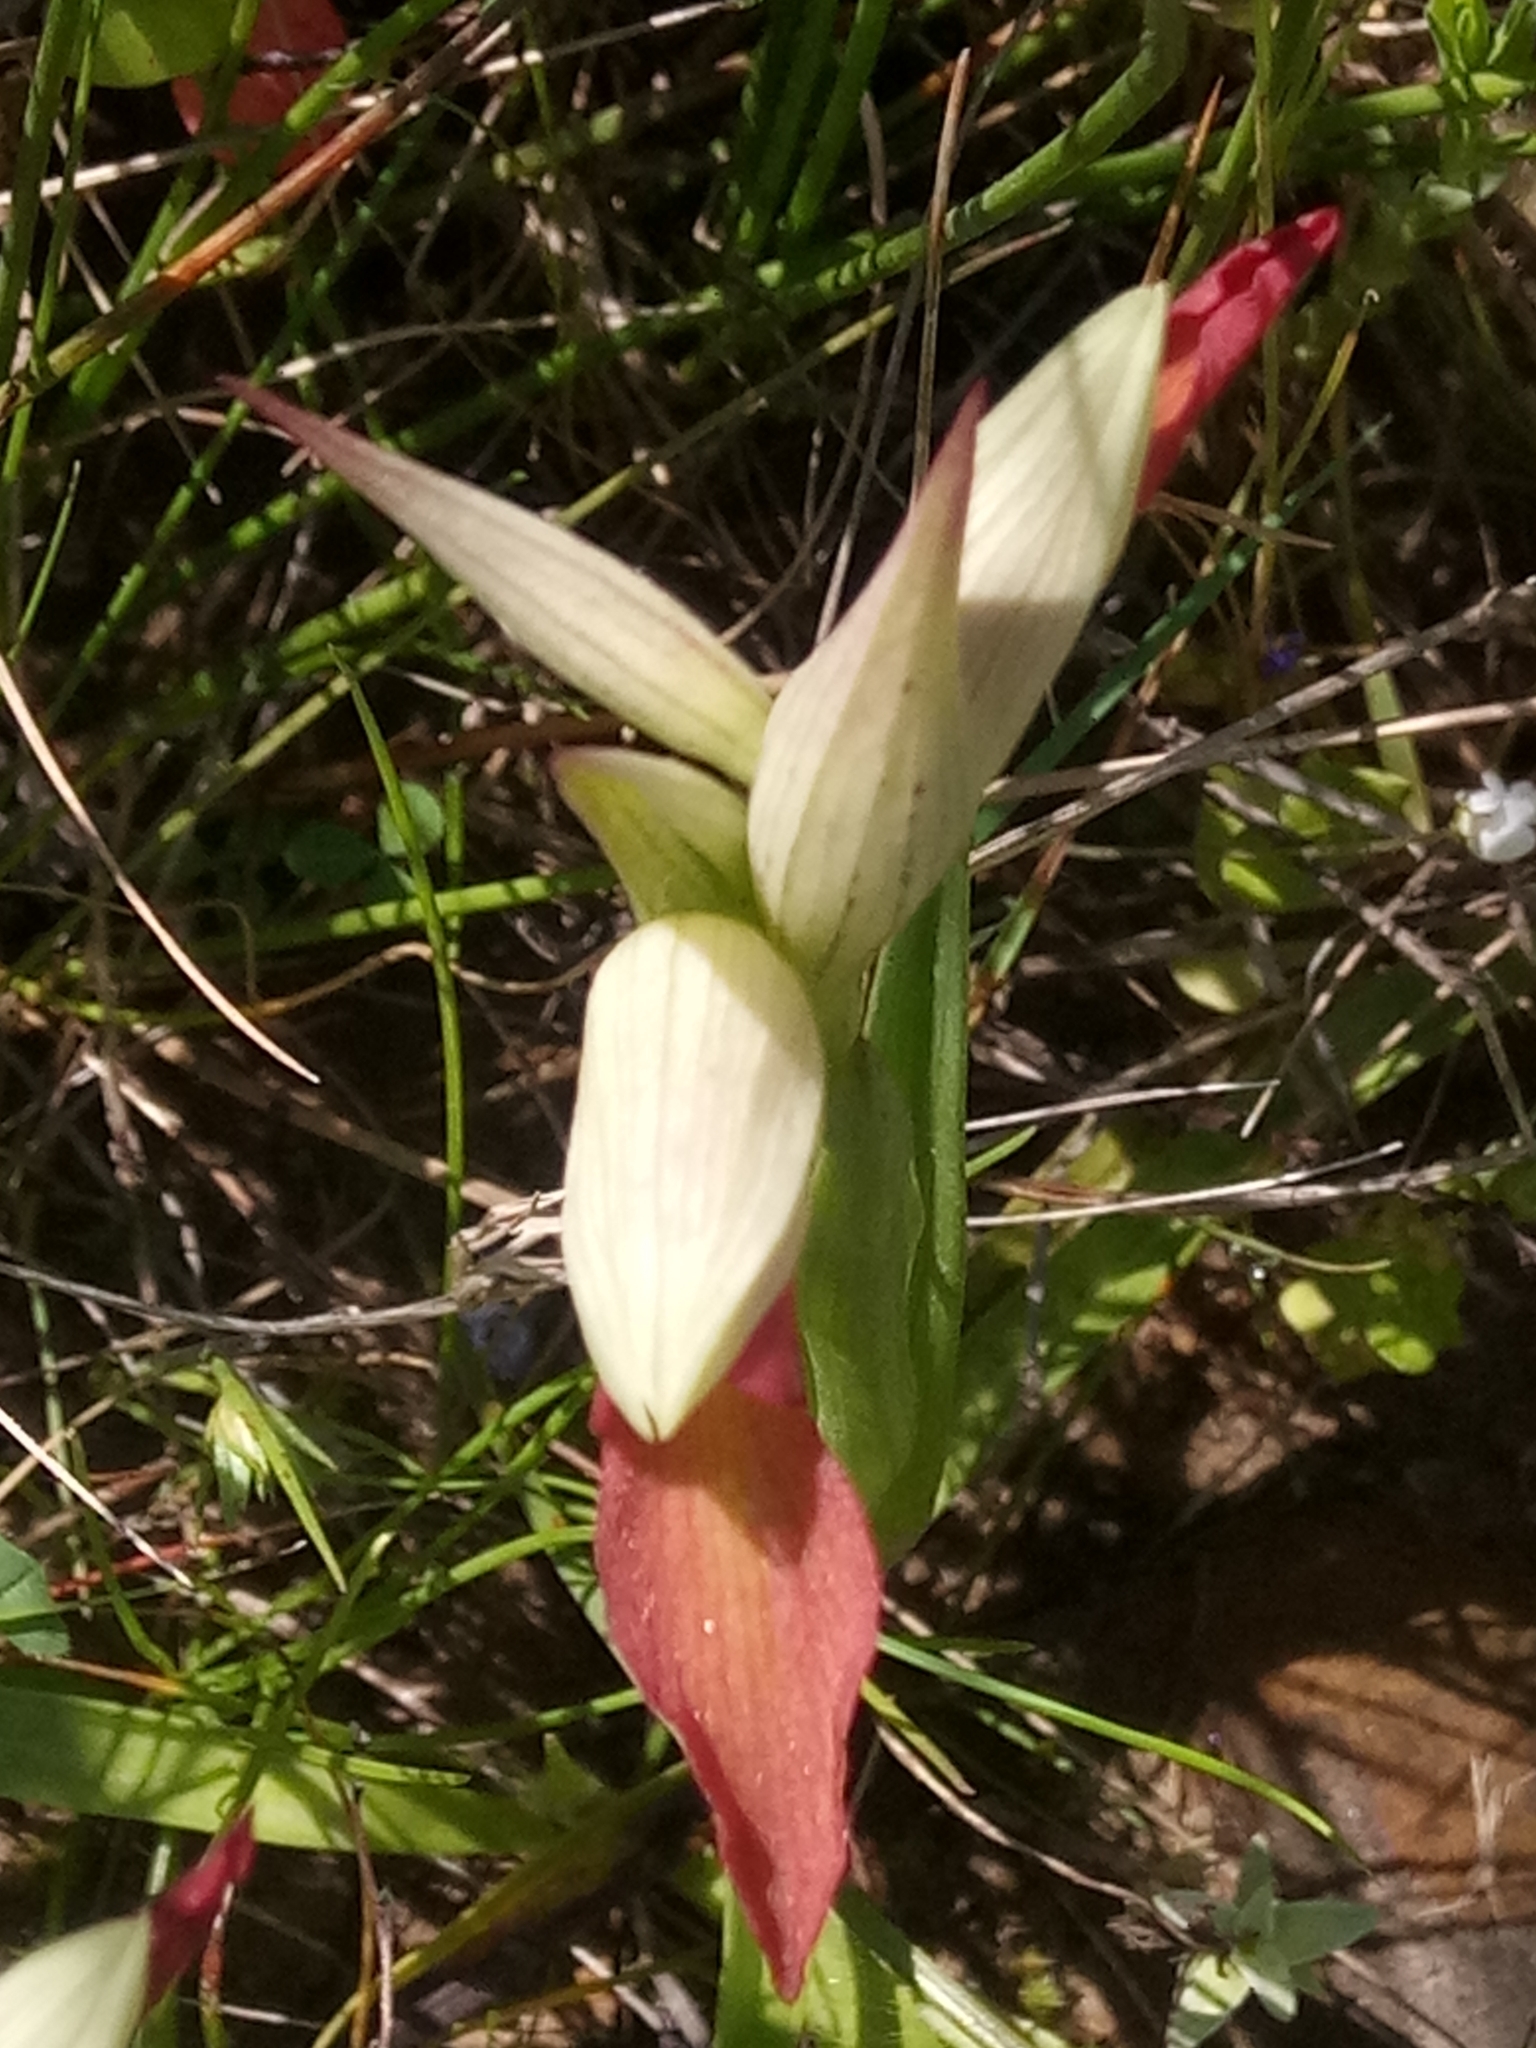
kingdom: Plantae
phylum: Tracheophyta
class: Liliopsida
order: Asparagales
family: Orchidaceae
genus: Serapias
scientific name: Serapias lingua
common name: Tongue-orchid
